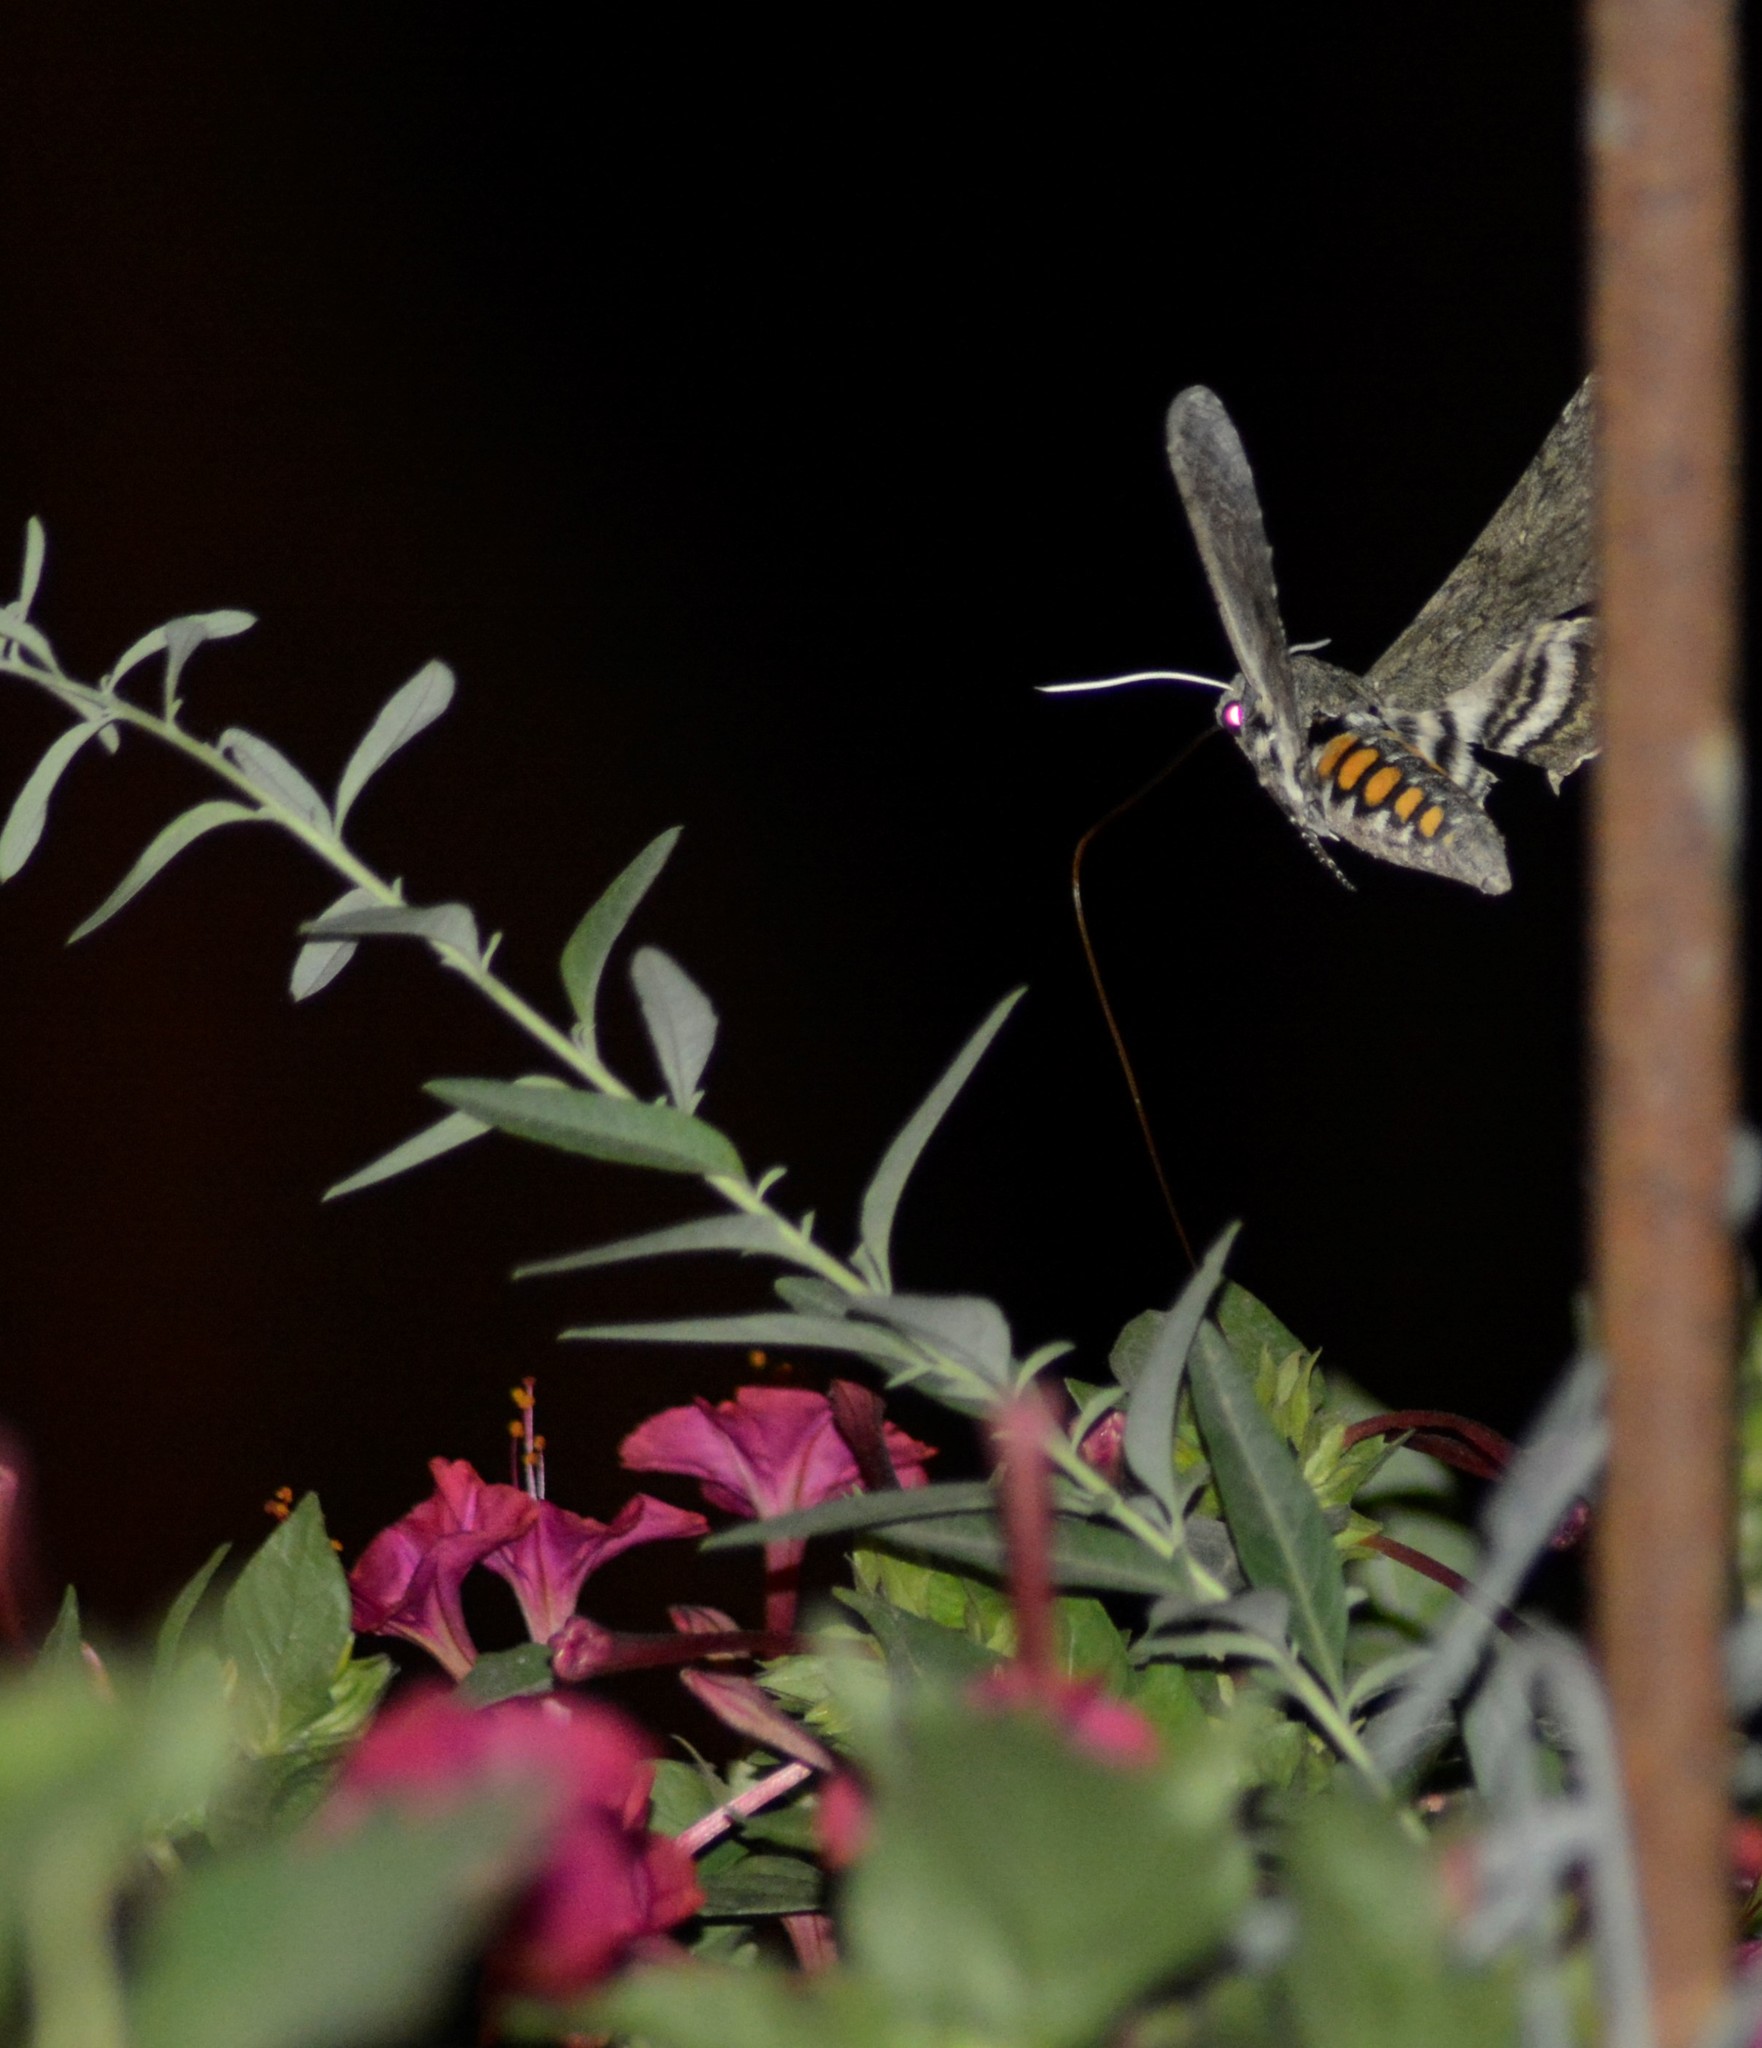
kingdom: Animalia
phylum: Arthropoda
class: Insecta
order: Lepidoptera
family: Sphingidae
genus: Manduca
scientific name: Manduca afflicta
